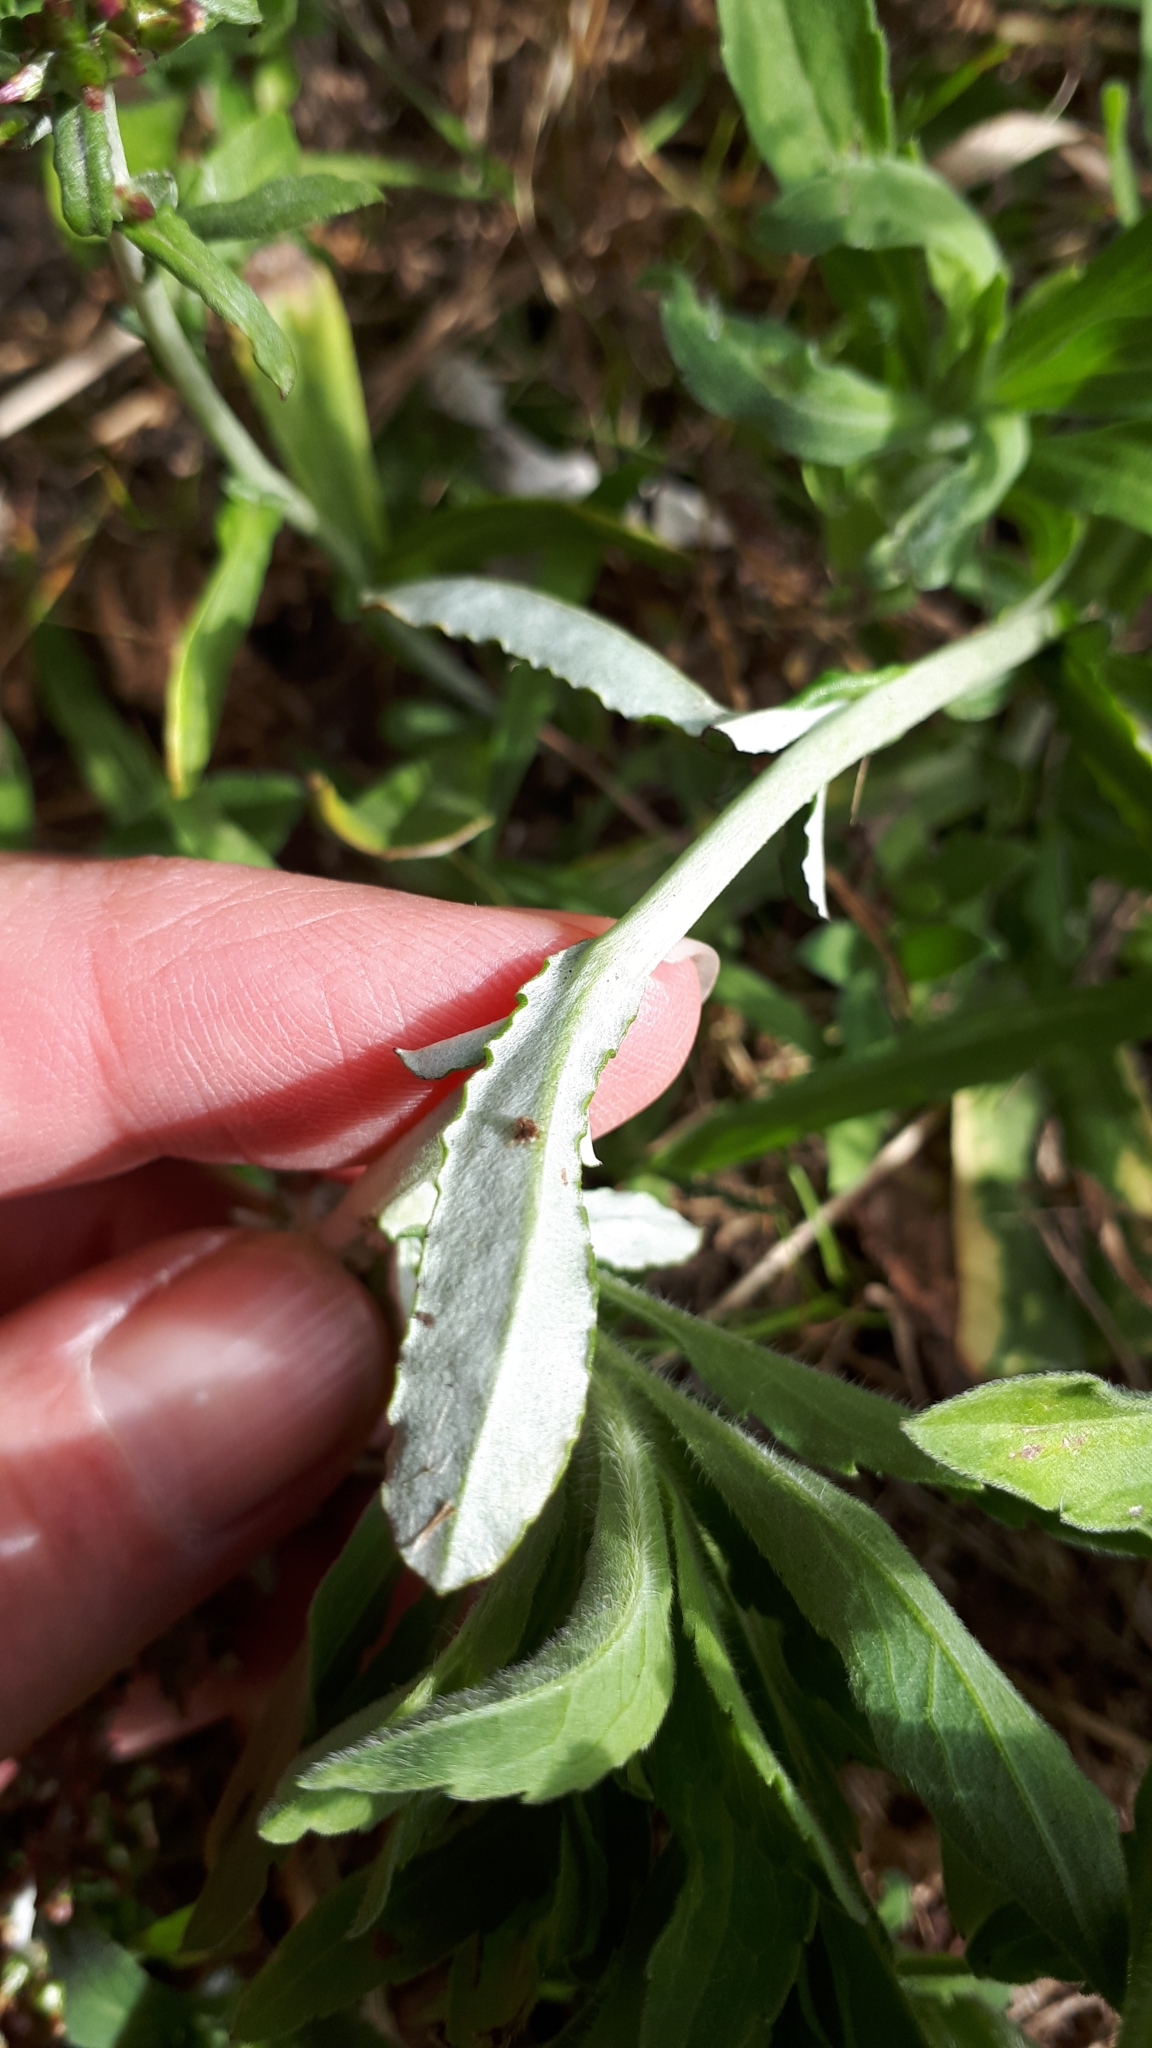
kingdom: Plantae
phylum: Tracheophyta
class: Magnoliopsida
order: Asterales
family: Asteraceae
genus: Gamochaeta
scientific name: Gamochaeta americana
